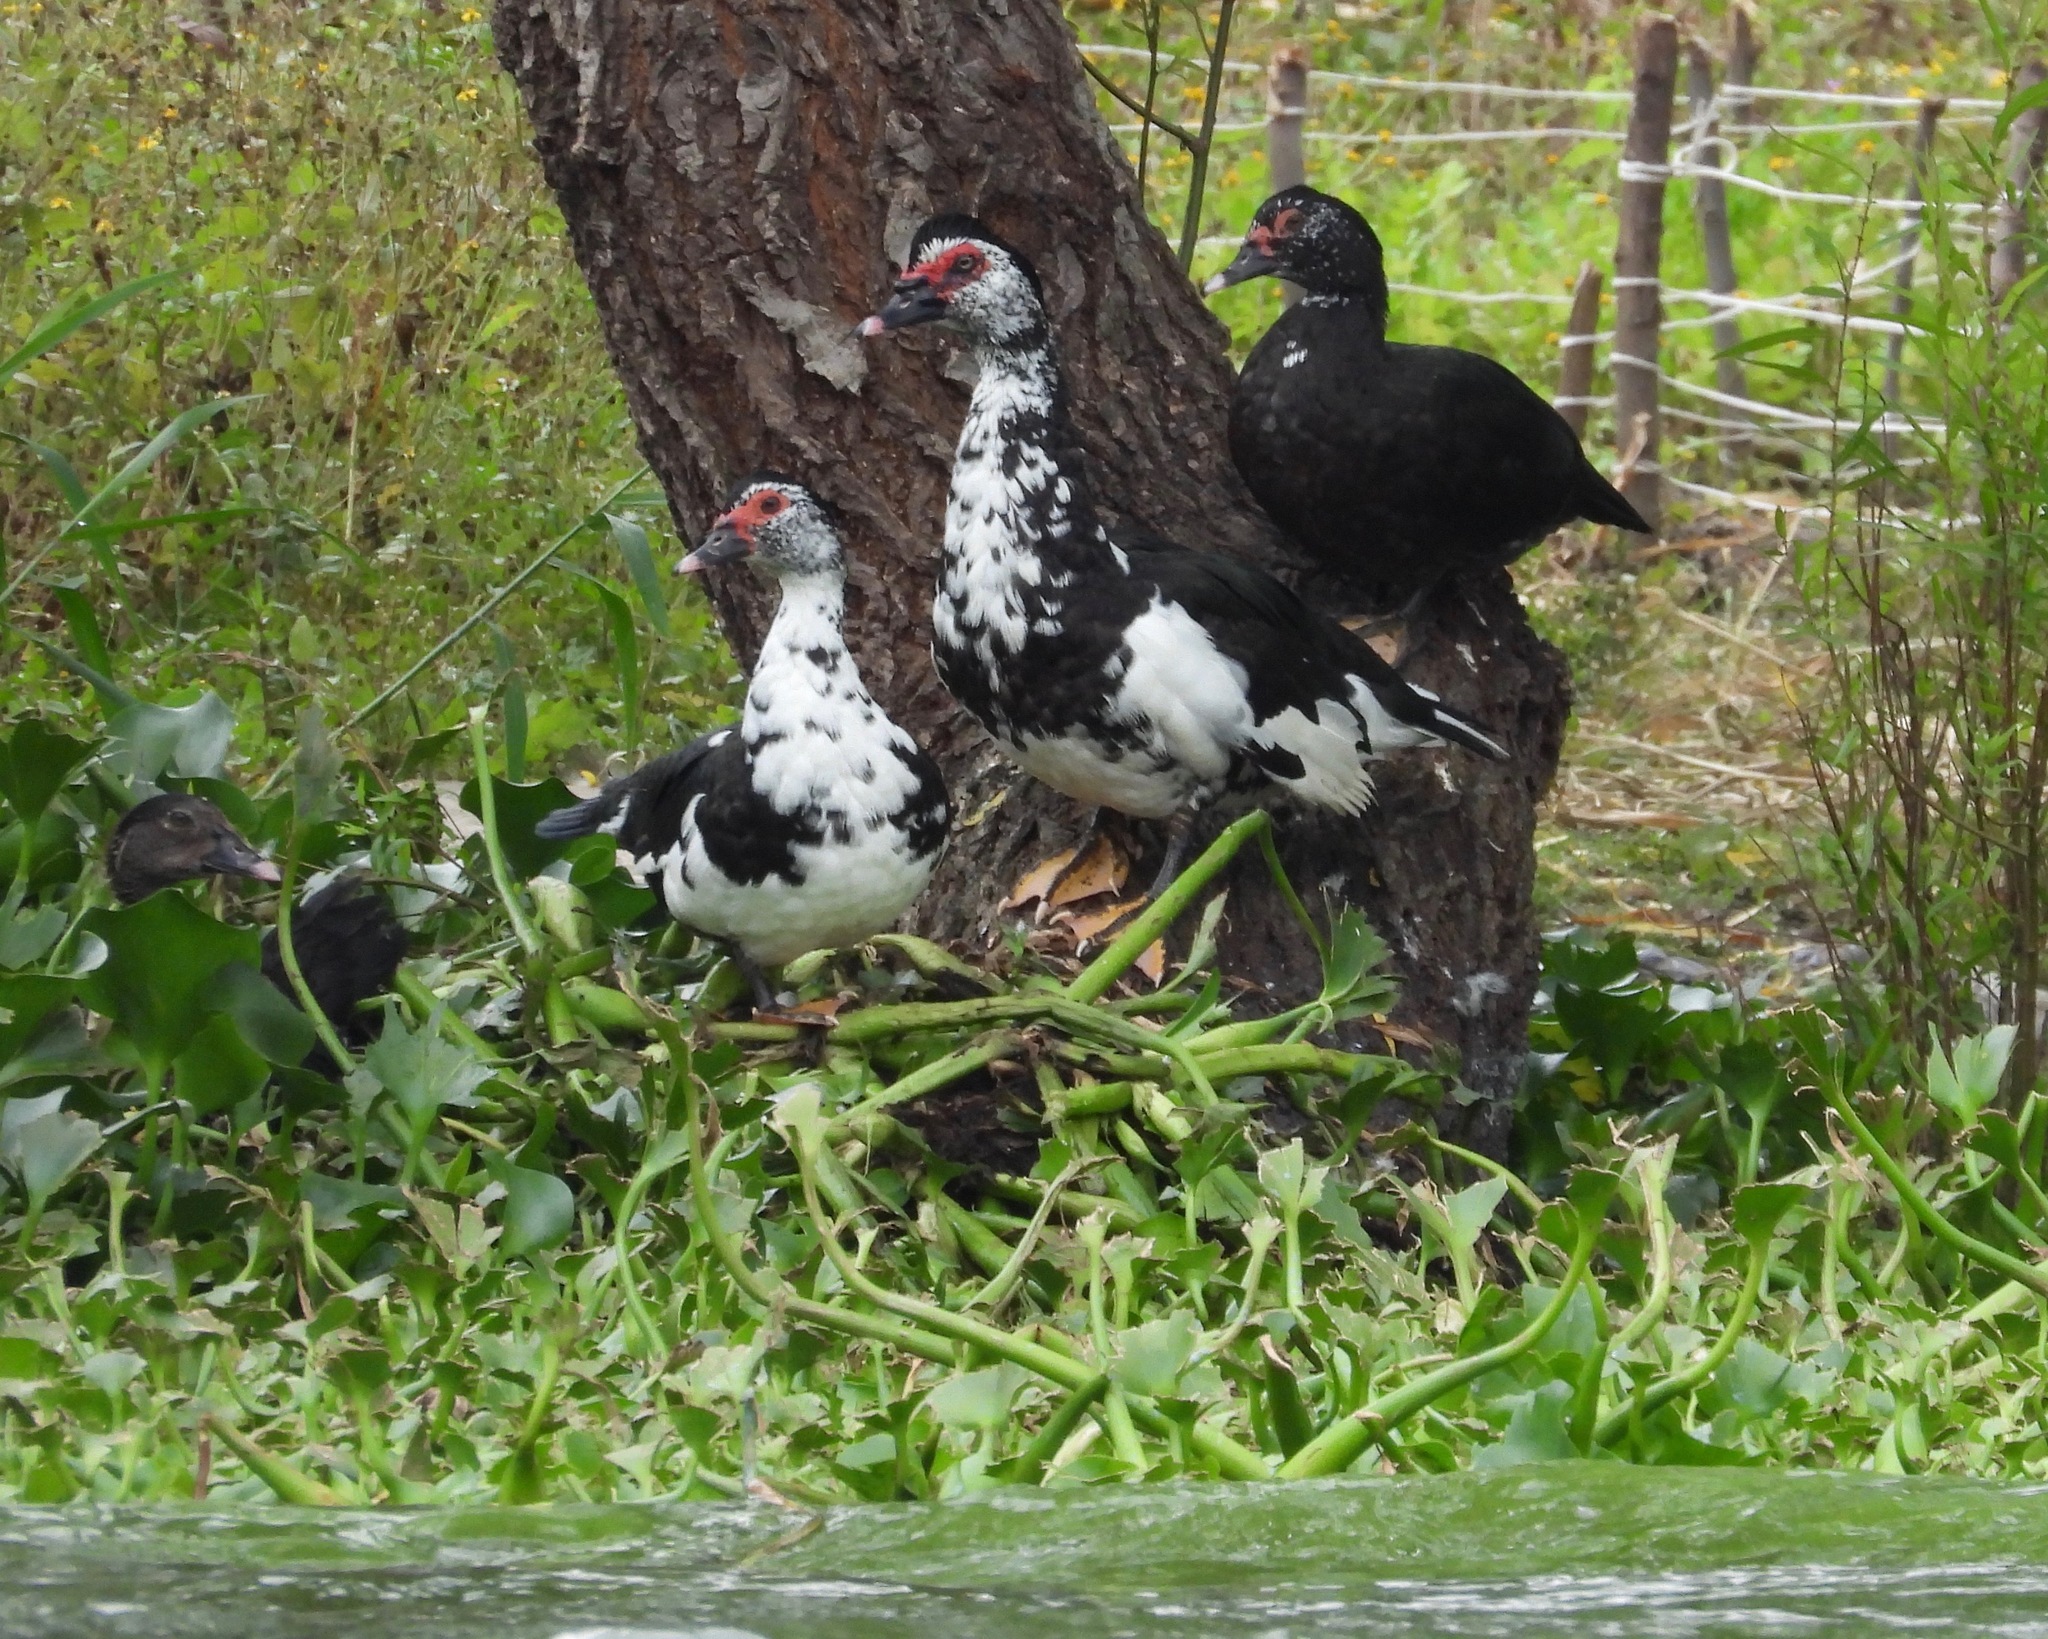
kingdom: Animalia
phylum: Chordata
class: Aves
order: Anseriformes
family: Anatidae
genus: Cairina
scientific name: Cairina moschata
